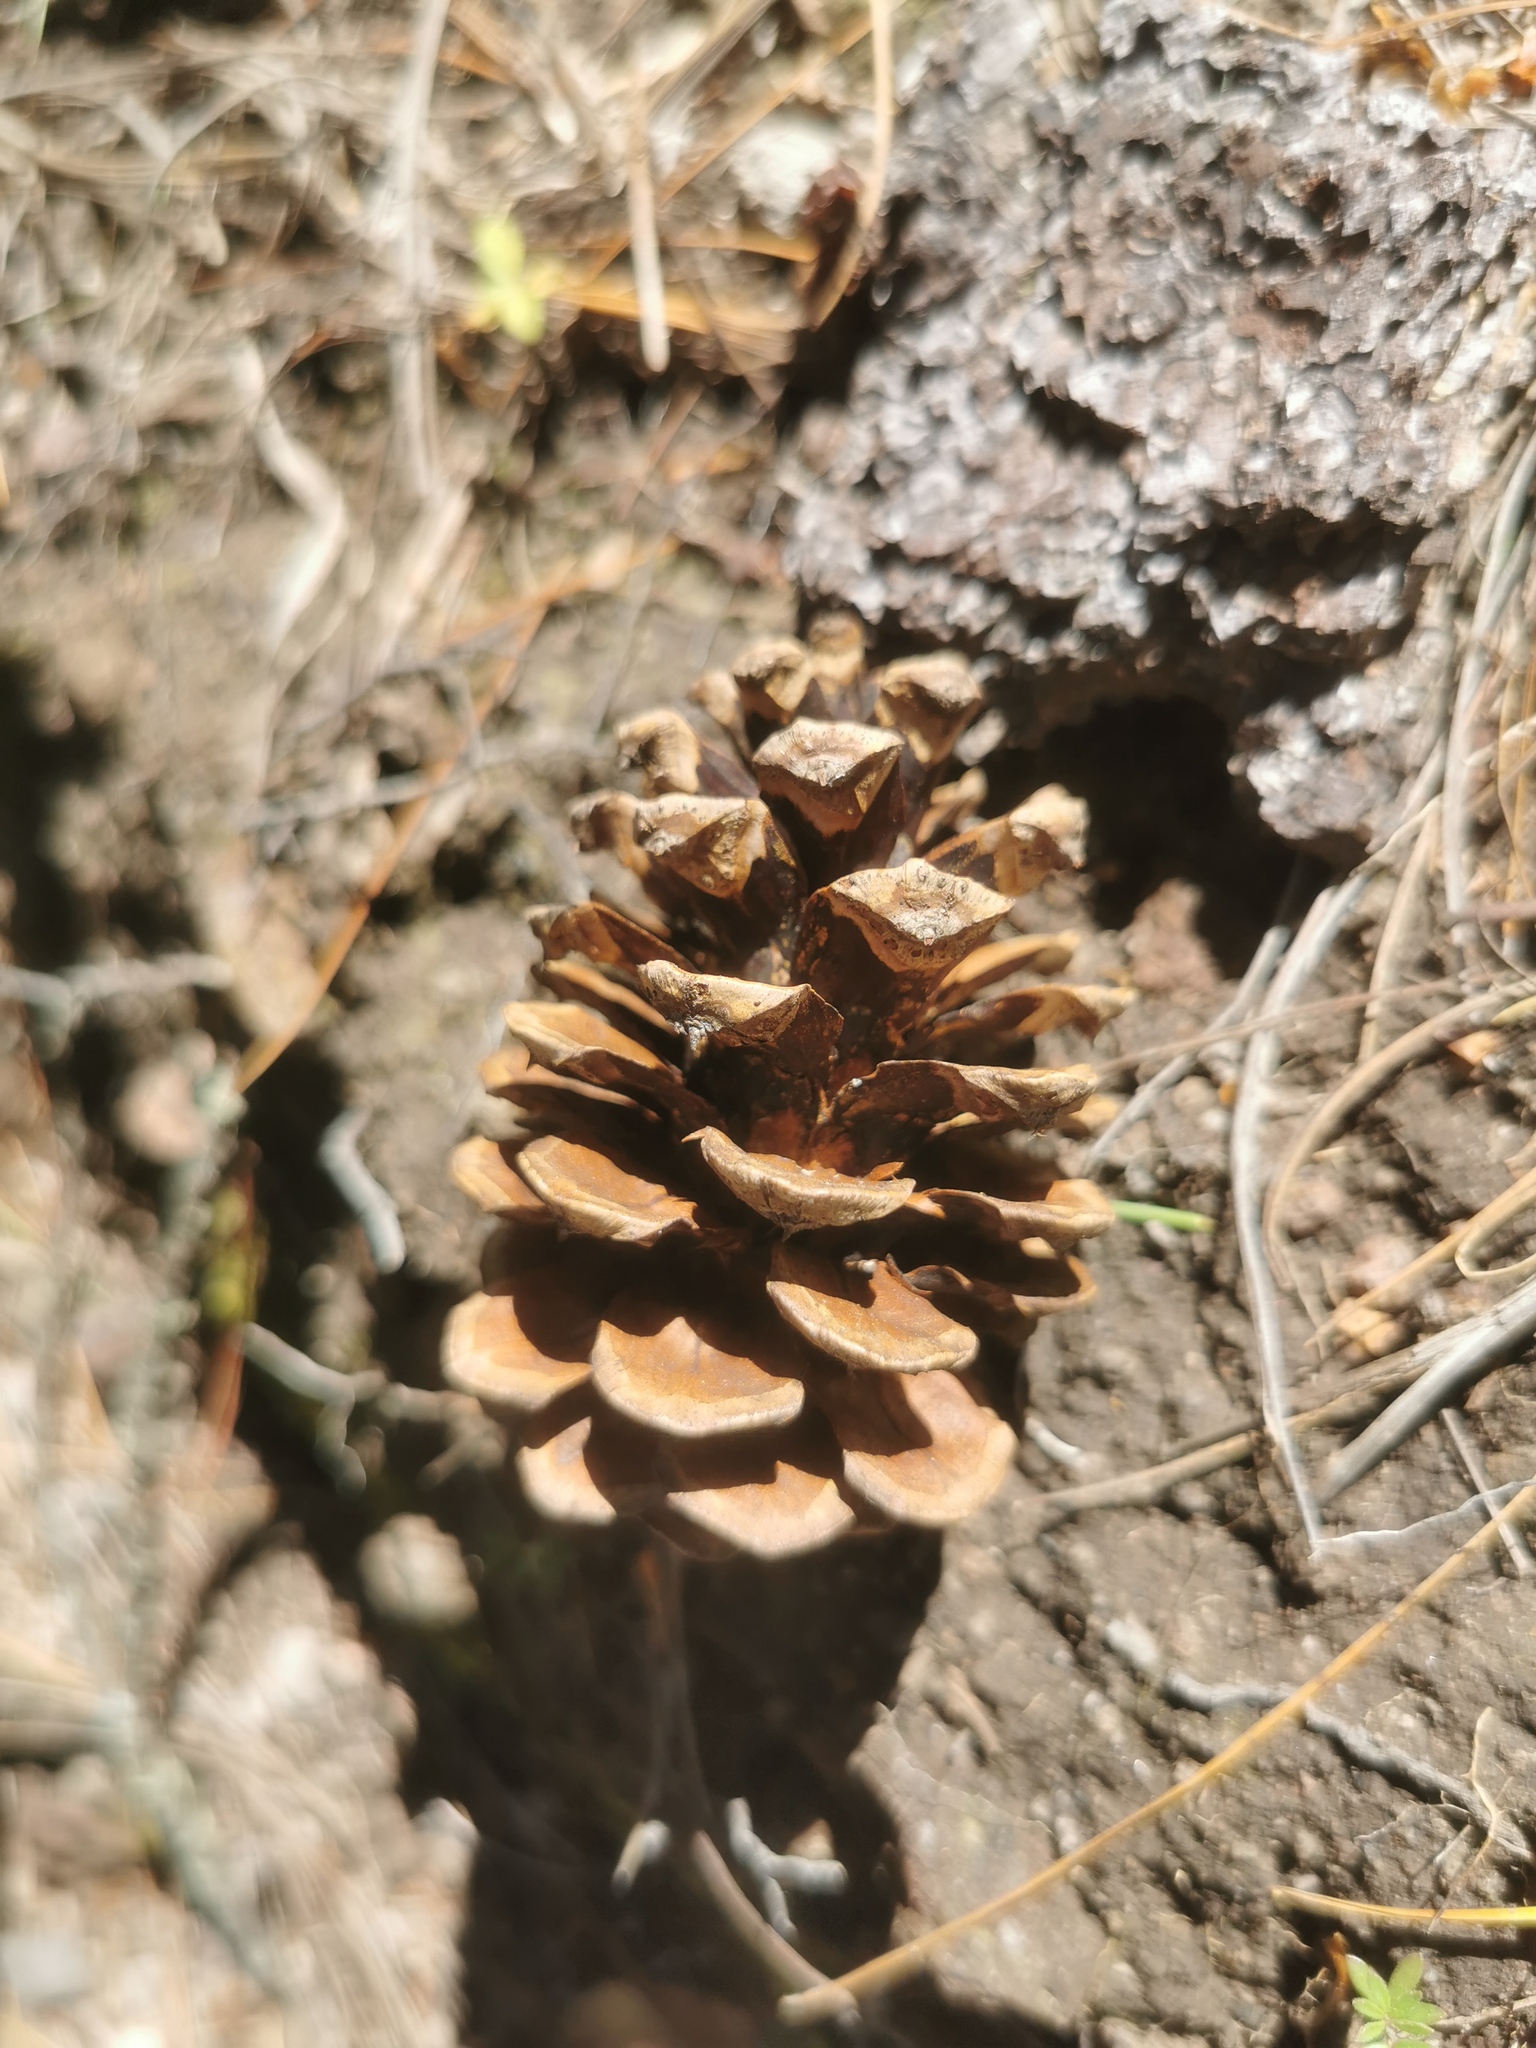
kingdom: Plantae
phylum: Tracheophyta
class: Pinopsida
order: Pinales
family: Pinaceae
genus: Pinus
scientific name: Pinus arizonica
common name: Arizona pine
